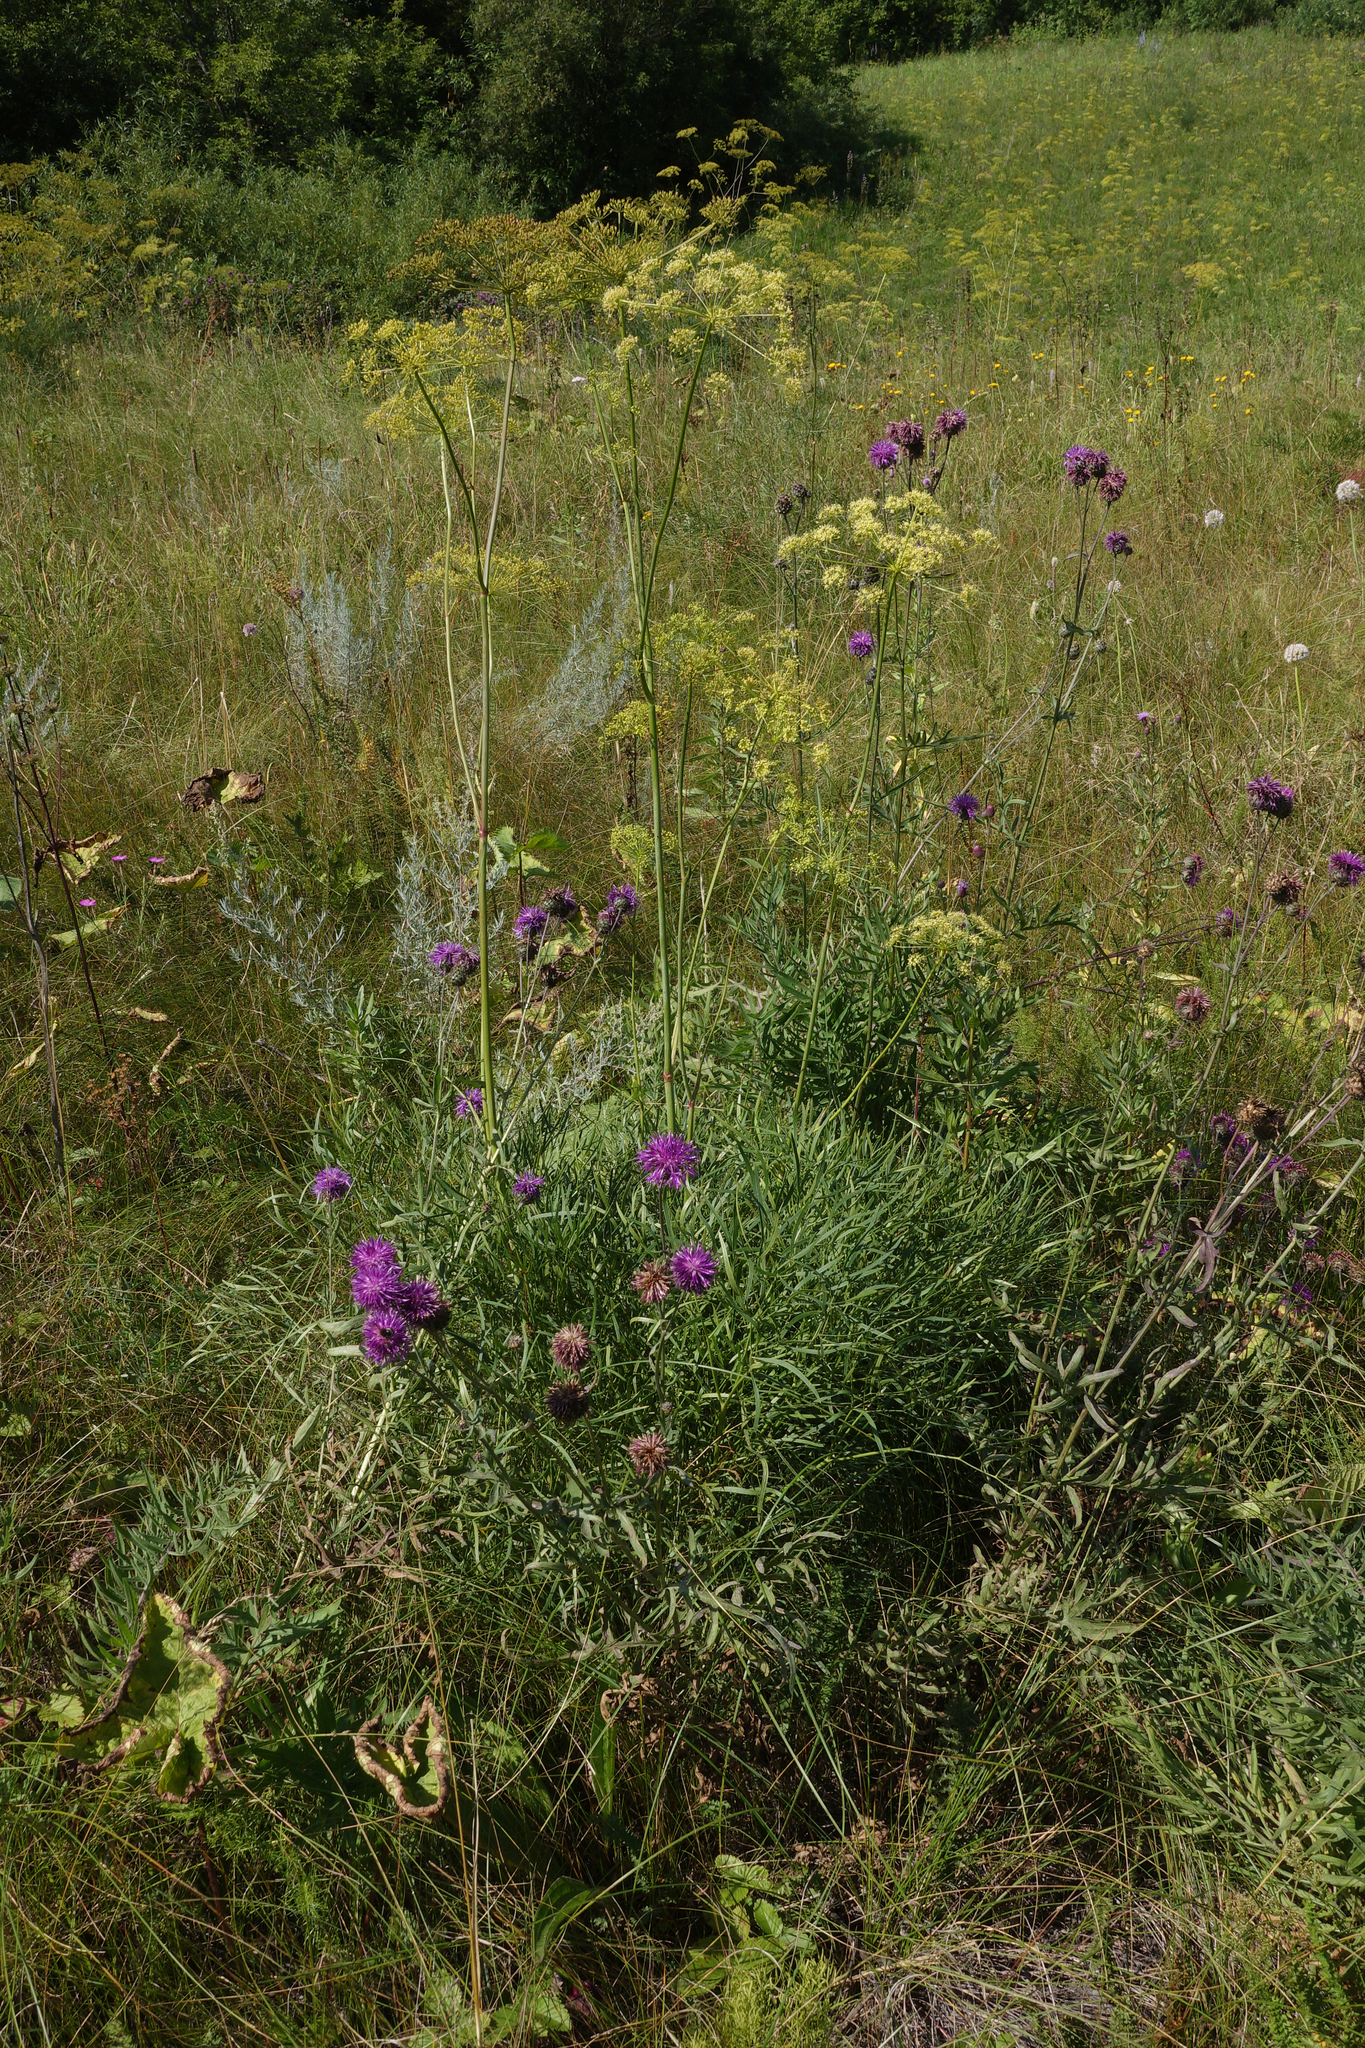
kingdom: Plantae
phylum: Tracheophyta
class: Magnoliopsida
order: Apiales
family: Apiaceae
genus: Peucedanum
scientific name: Peucedanum morisonii
